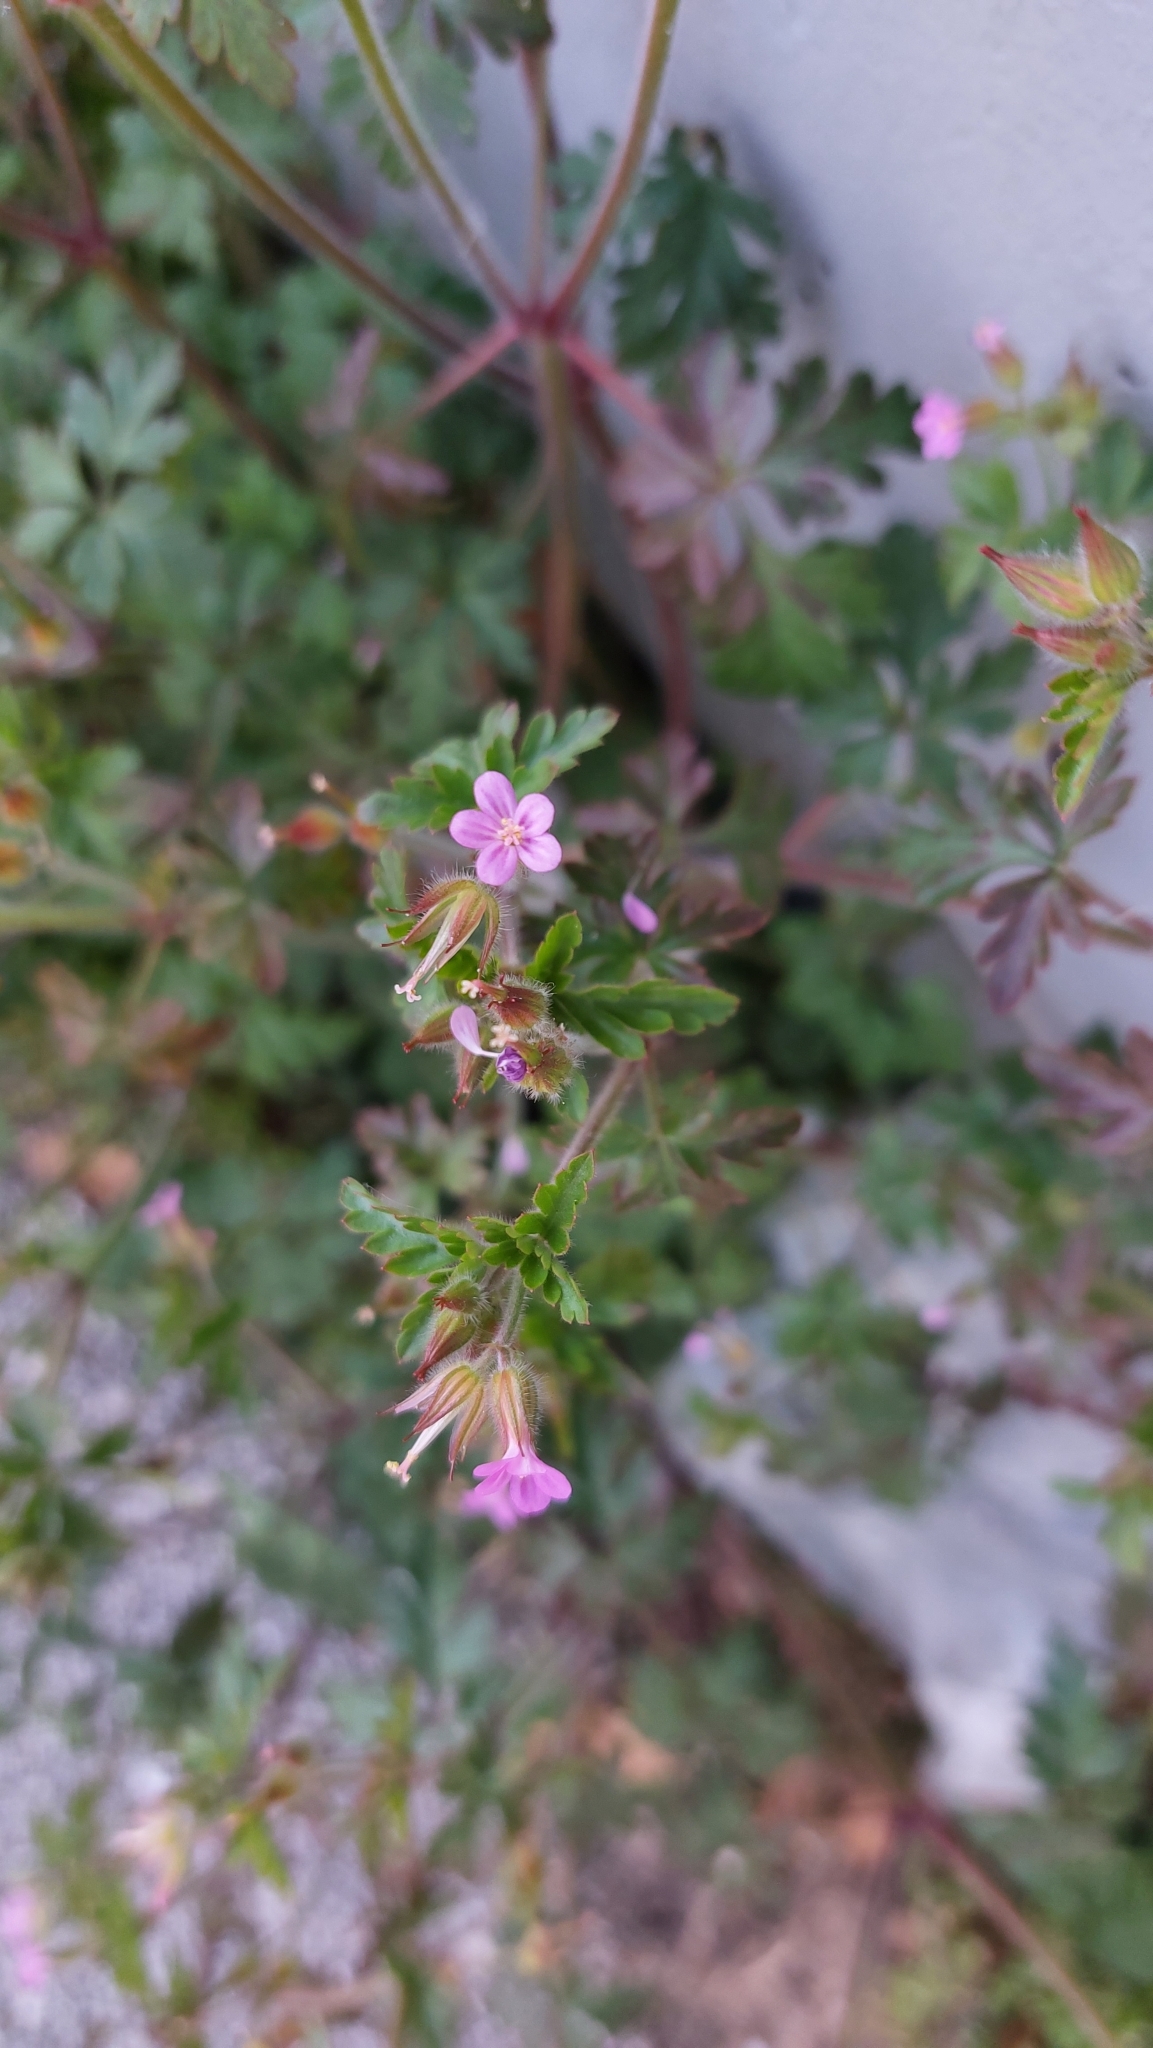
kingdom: Plantae
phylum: Tracheophyta
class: Magnoliopsida
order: Geraniales
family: Geraniaceae
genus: Geranium
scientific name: Geranium purpureum
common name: Little-robin
